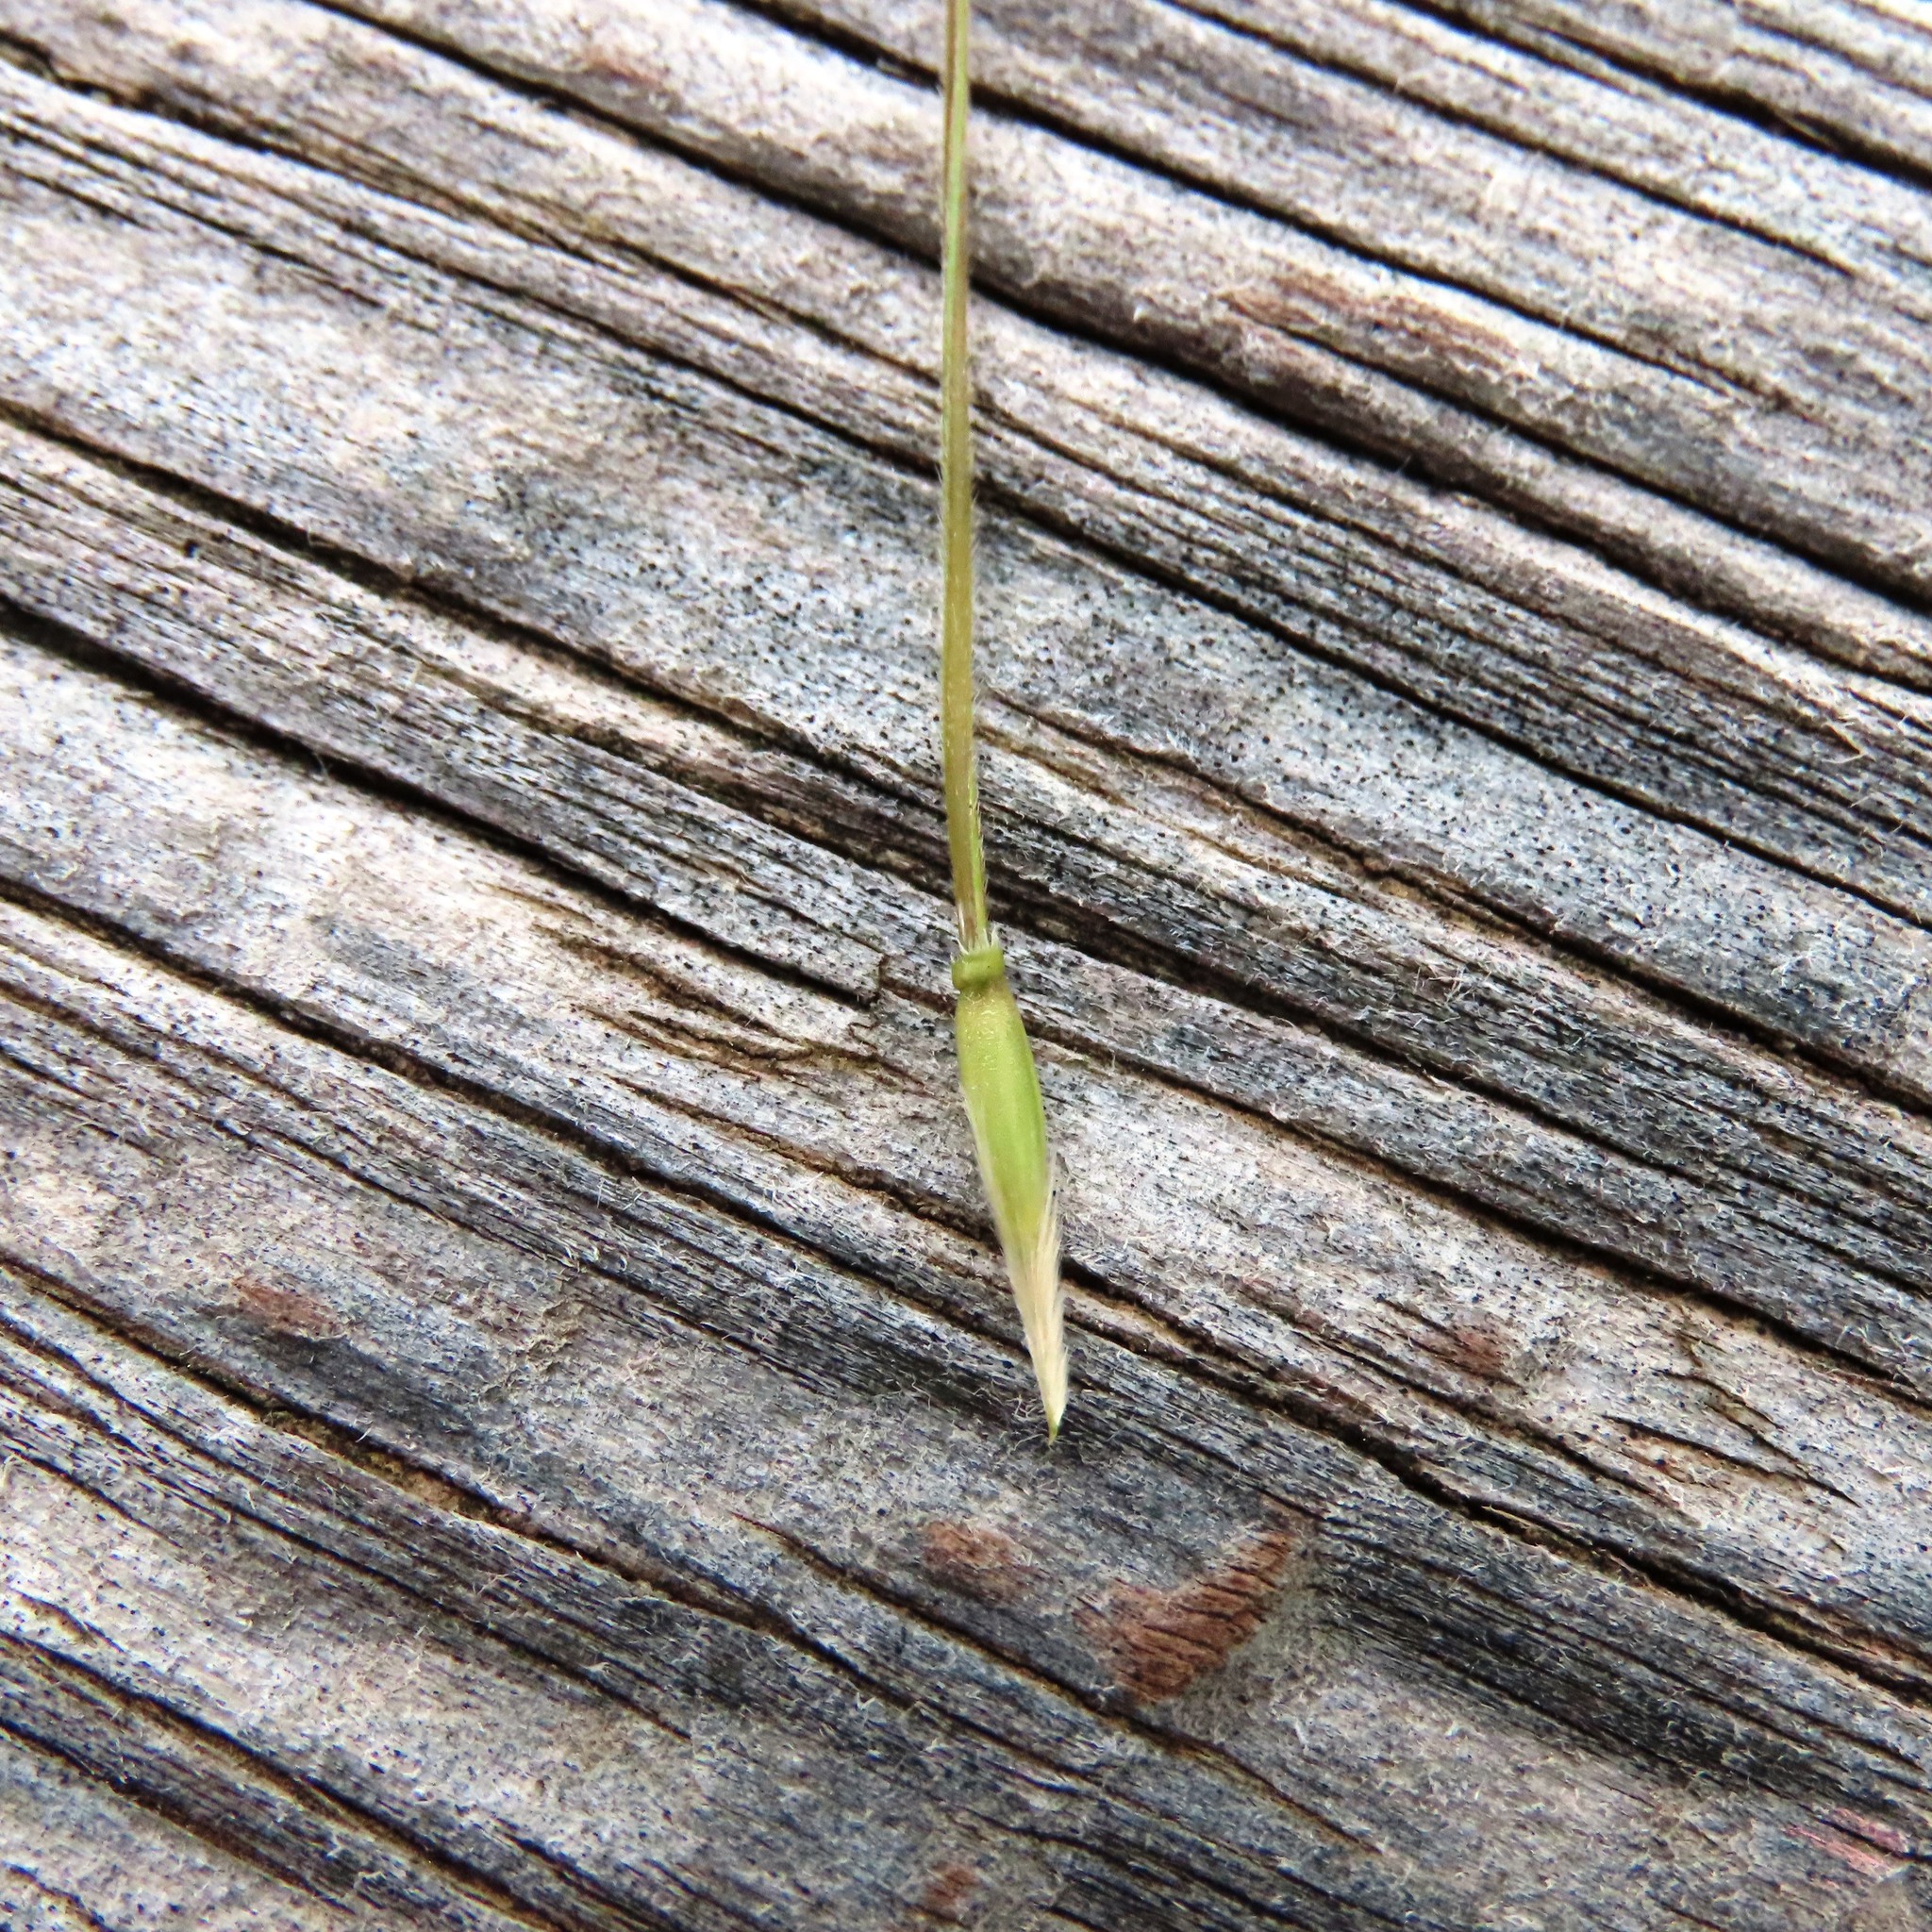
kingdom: Plantae
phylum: Tracheophyta
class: Liliopsida
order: Poales
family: Poaceae
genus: Nassella
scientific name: Nassella neesiana
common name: American needle-grass
